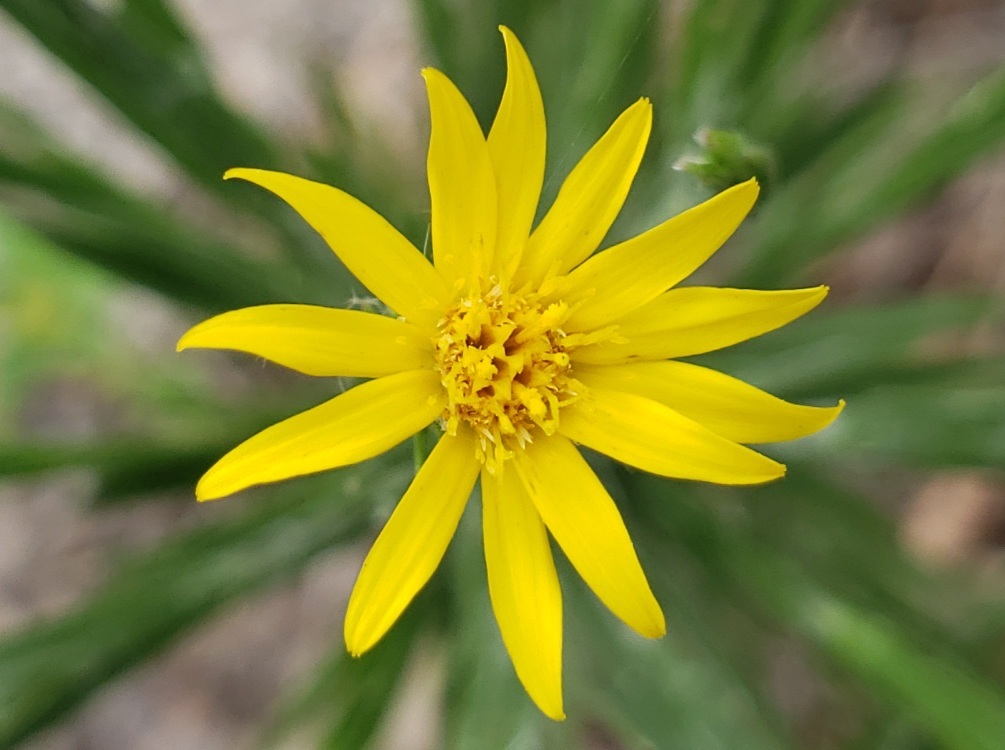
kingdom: Plantae
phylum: Tracheophyta
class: Magnoliopsida
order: Asterales
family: Asteraceae
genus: Pityopsis
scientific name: Pityopsis graminifolia
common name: Grass-leaf golden-aster
